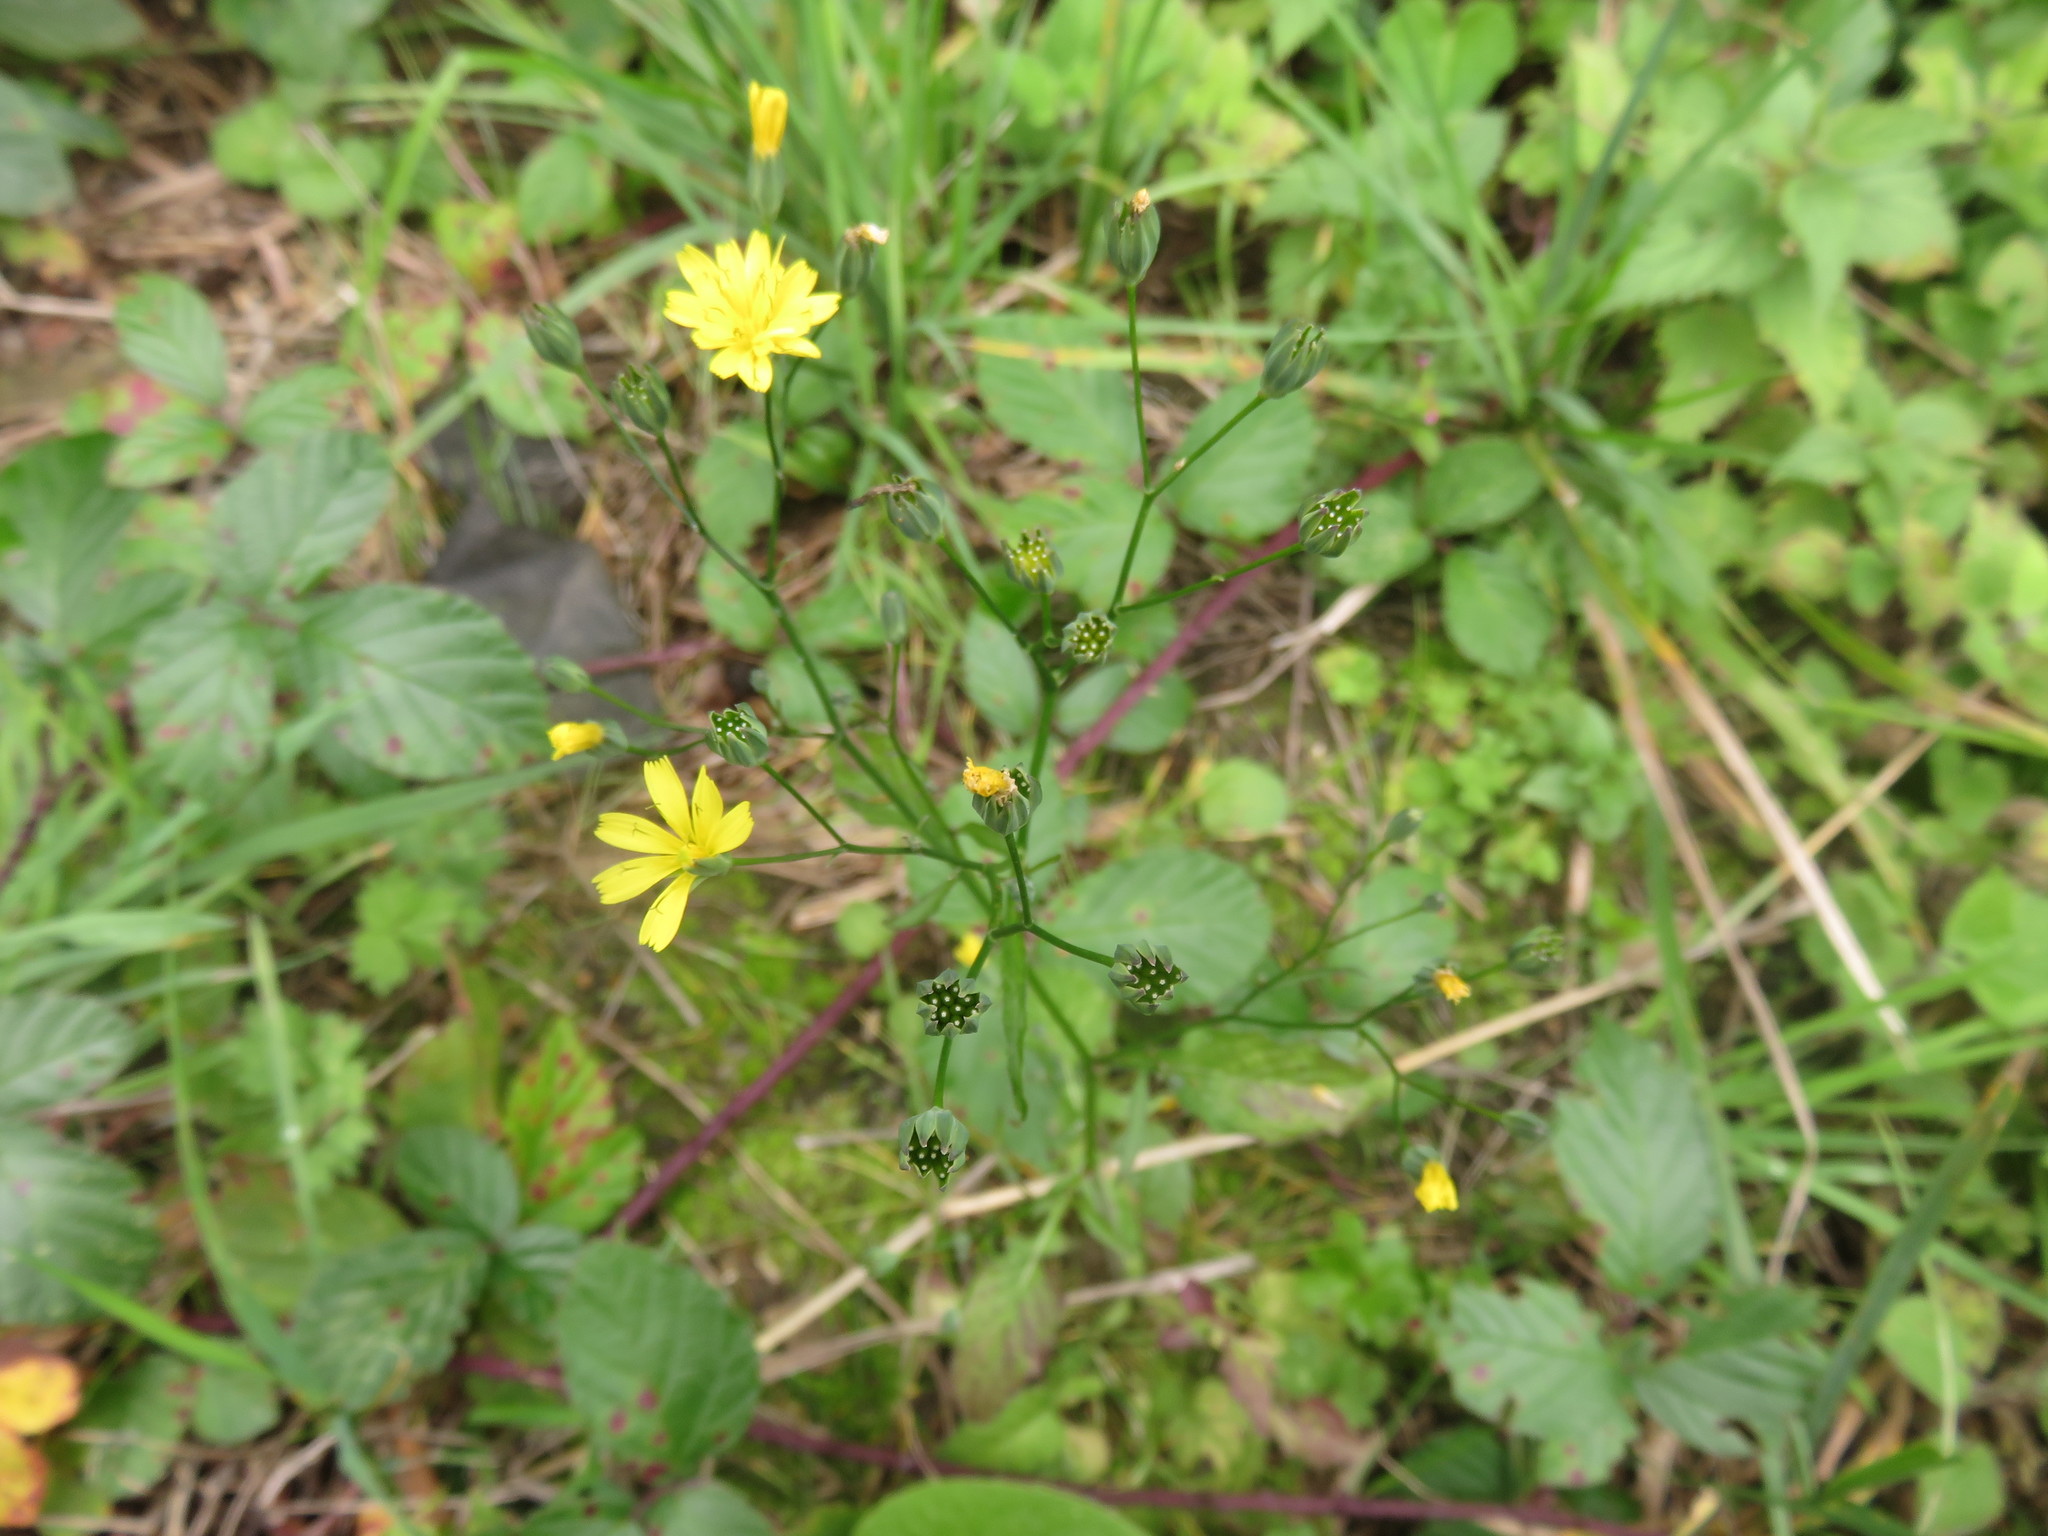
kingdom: Plantae
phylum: Tracheophyta
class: Magnoliopsida
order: Asterales
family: Asteraceae
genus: Lapsana
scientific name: Lapsana communis
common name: Nipplewort
